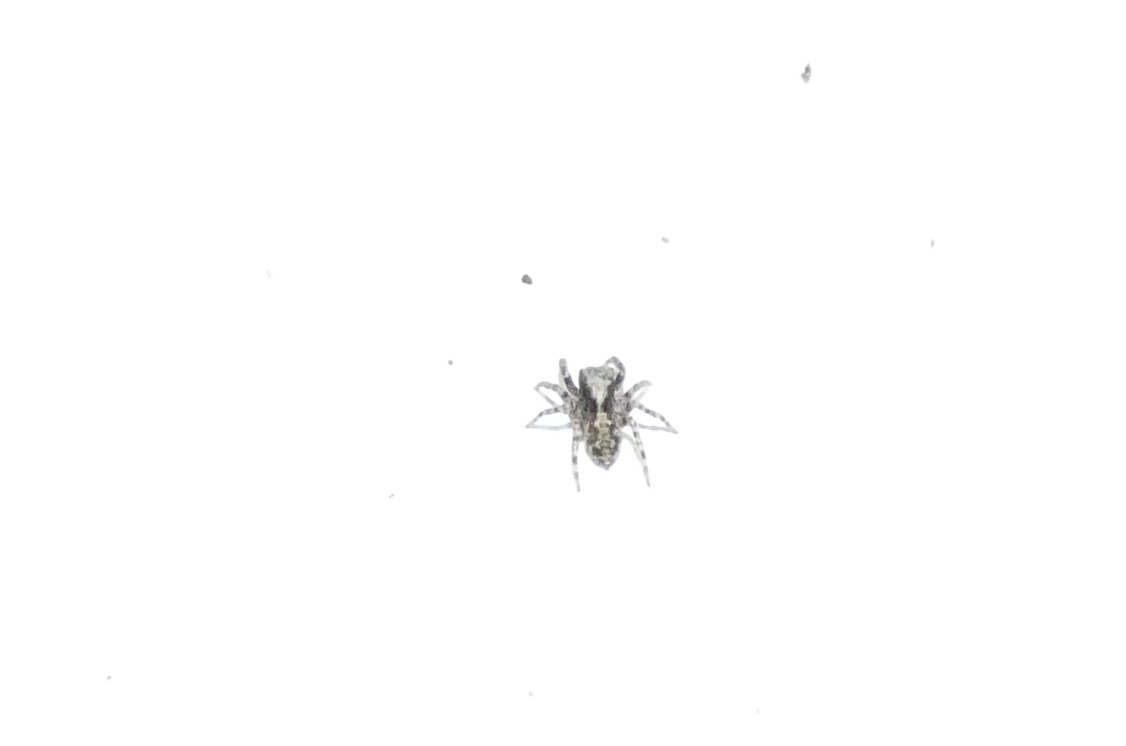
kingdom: Animalia
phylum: Arthropoda
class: Arachnida
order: Araneae
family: Salticidae
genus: Pseudeuophrys
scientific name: Pseudeuophrys lanigera
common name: Jumping spider
